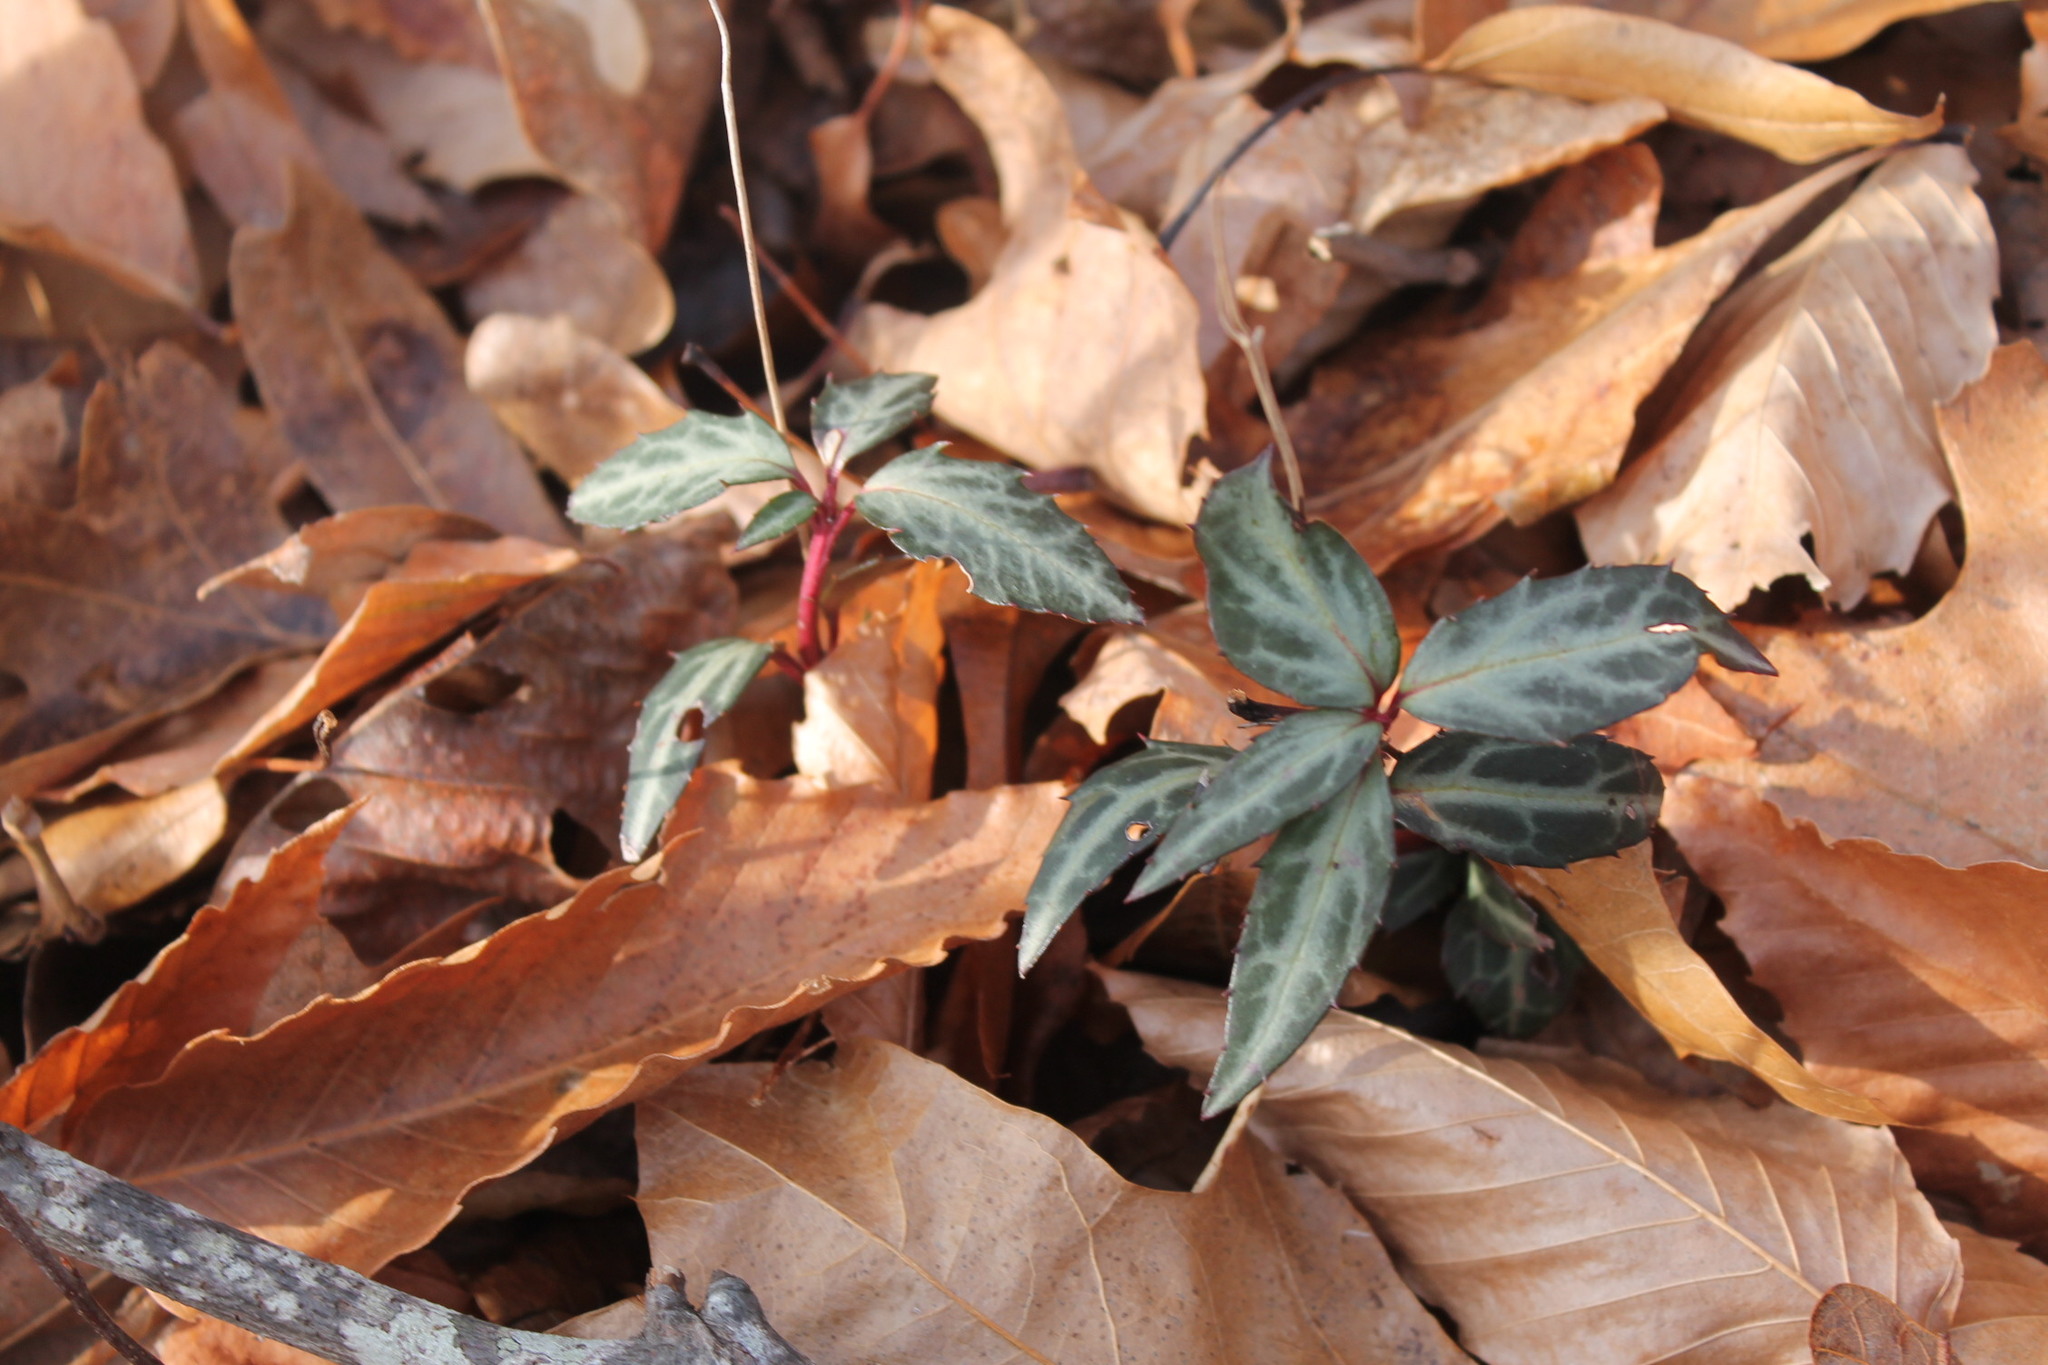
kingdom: Plantae
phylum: Tracheophyta
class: Magnoliopsida
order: Ericales
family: Ericaceae
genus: Chimaphila
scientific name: Chimaphila maculata
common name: Spotted pipsissewa
